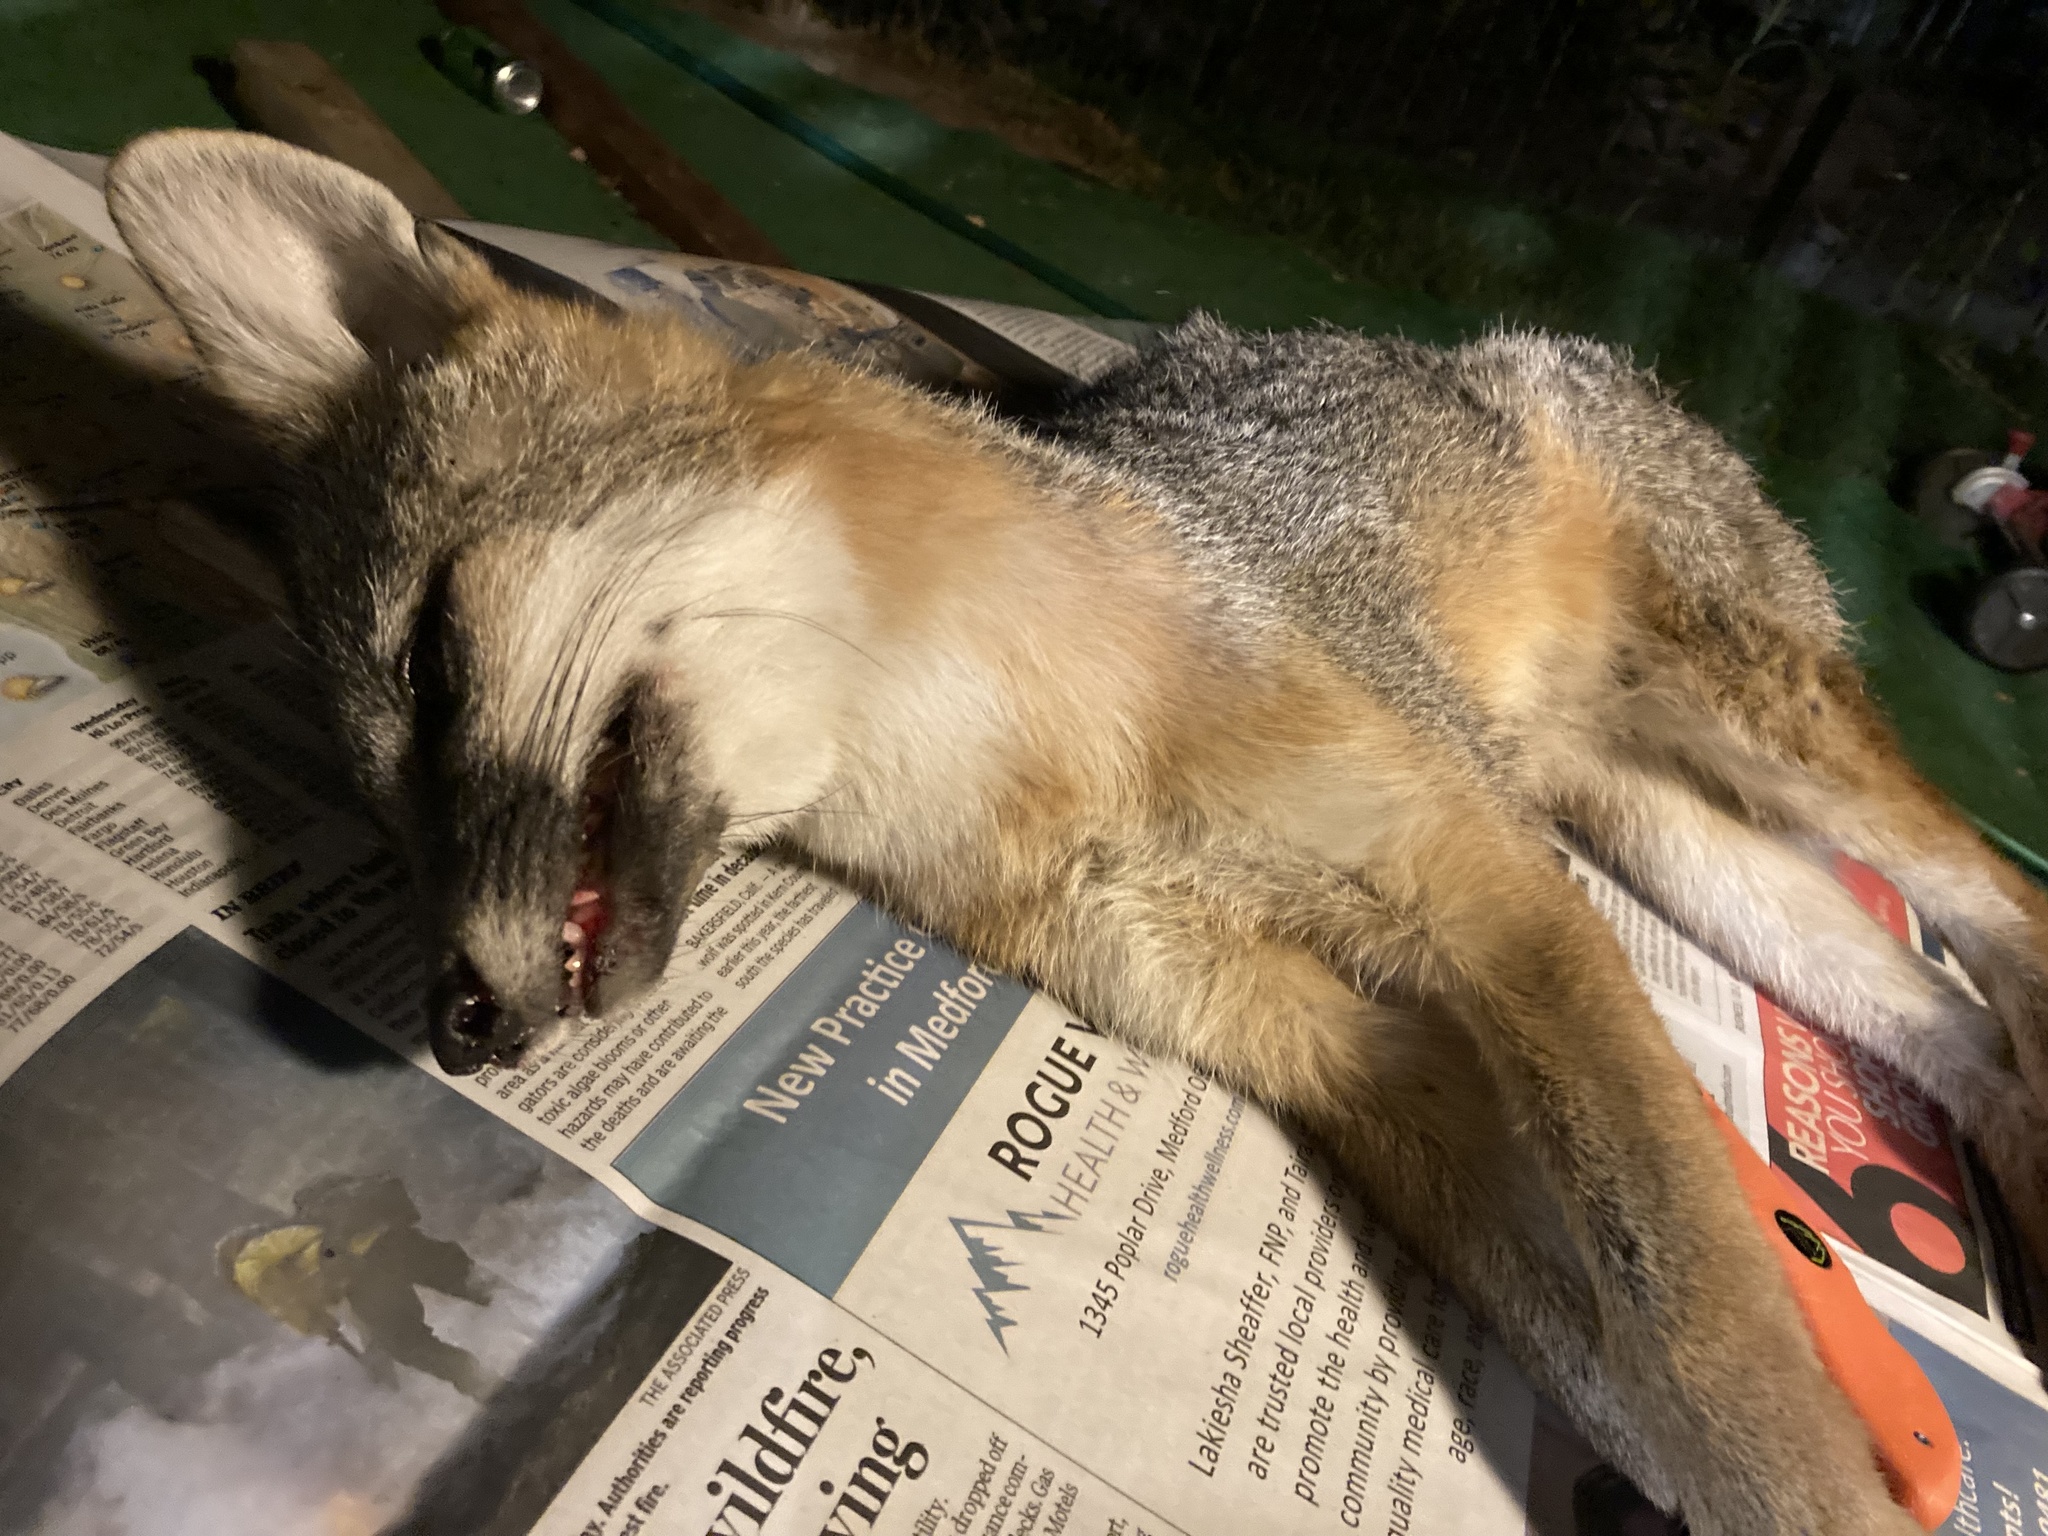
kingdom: Animalia
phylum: Chordata
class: Mammalia
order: Carnivora
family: Canidae
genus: Urocyon
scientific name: Urocyon cinereoargenteus
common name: Gray fox
